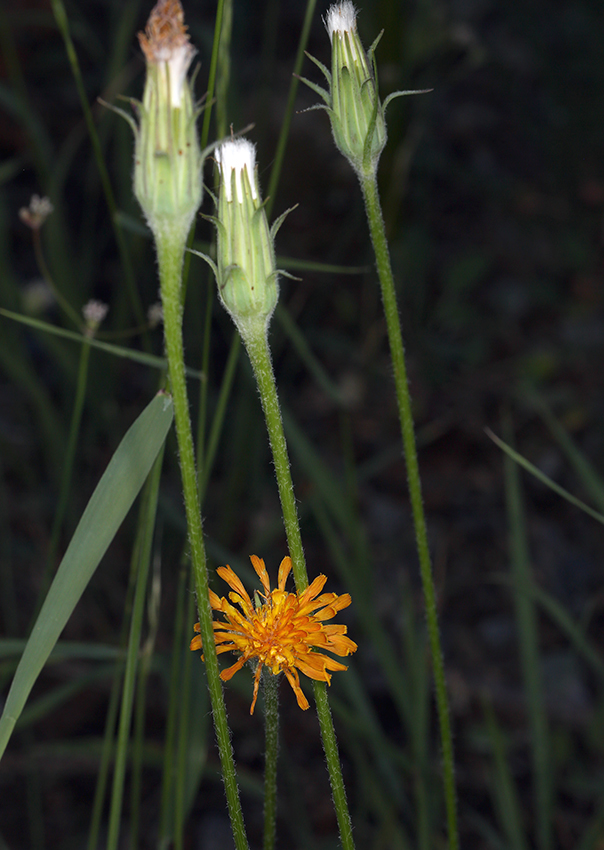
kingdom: Plantae
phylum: Tracheophyta
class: Magnoliopsida
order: Asterales
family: Asteraceae
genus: Agoseris
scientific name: Agoseris aurantiaca
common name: Mountain agoseris
